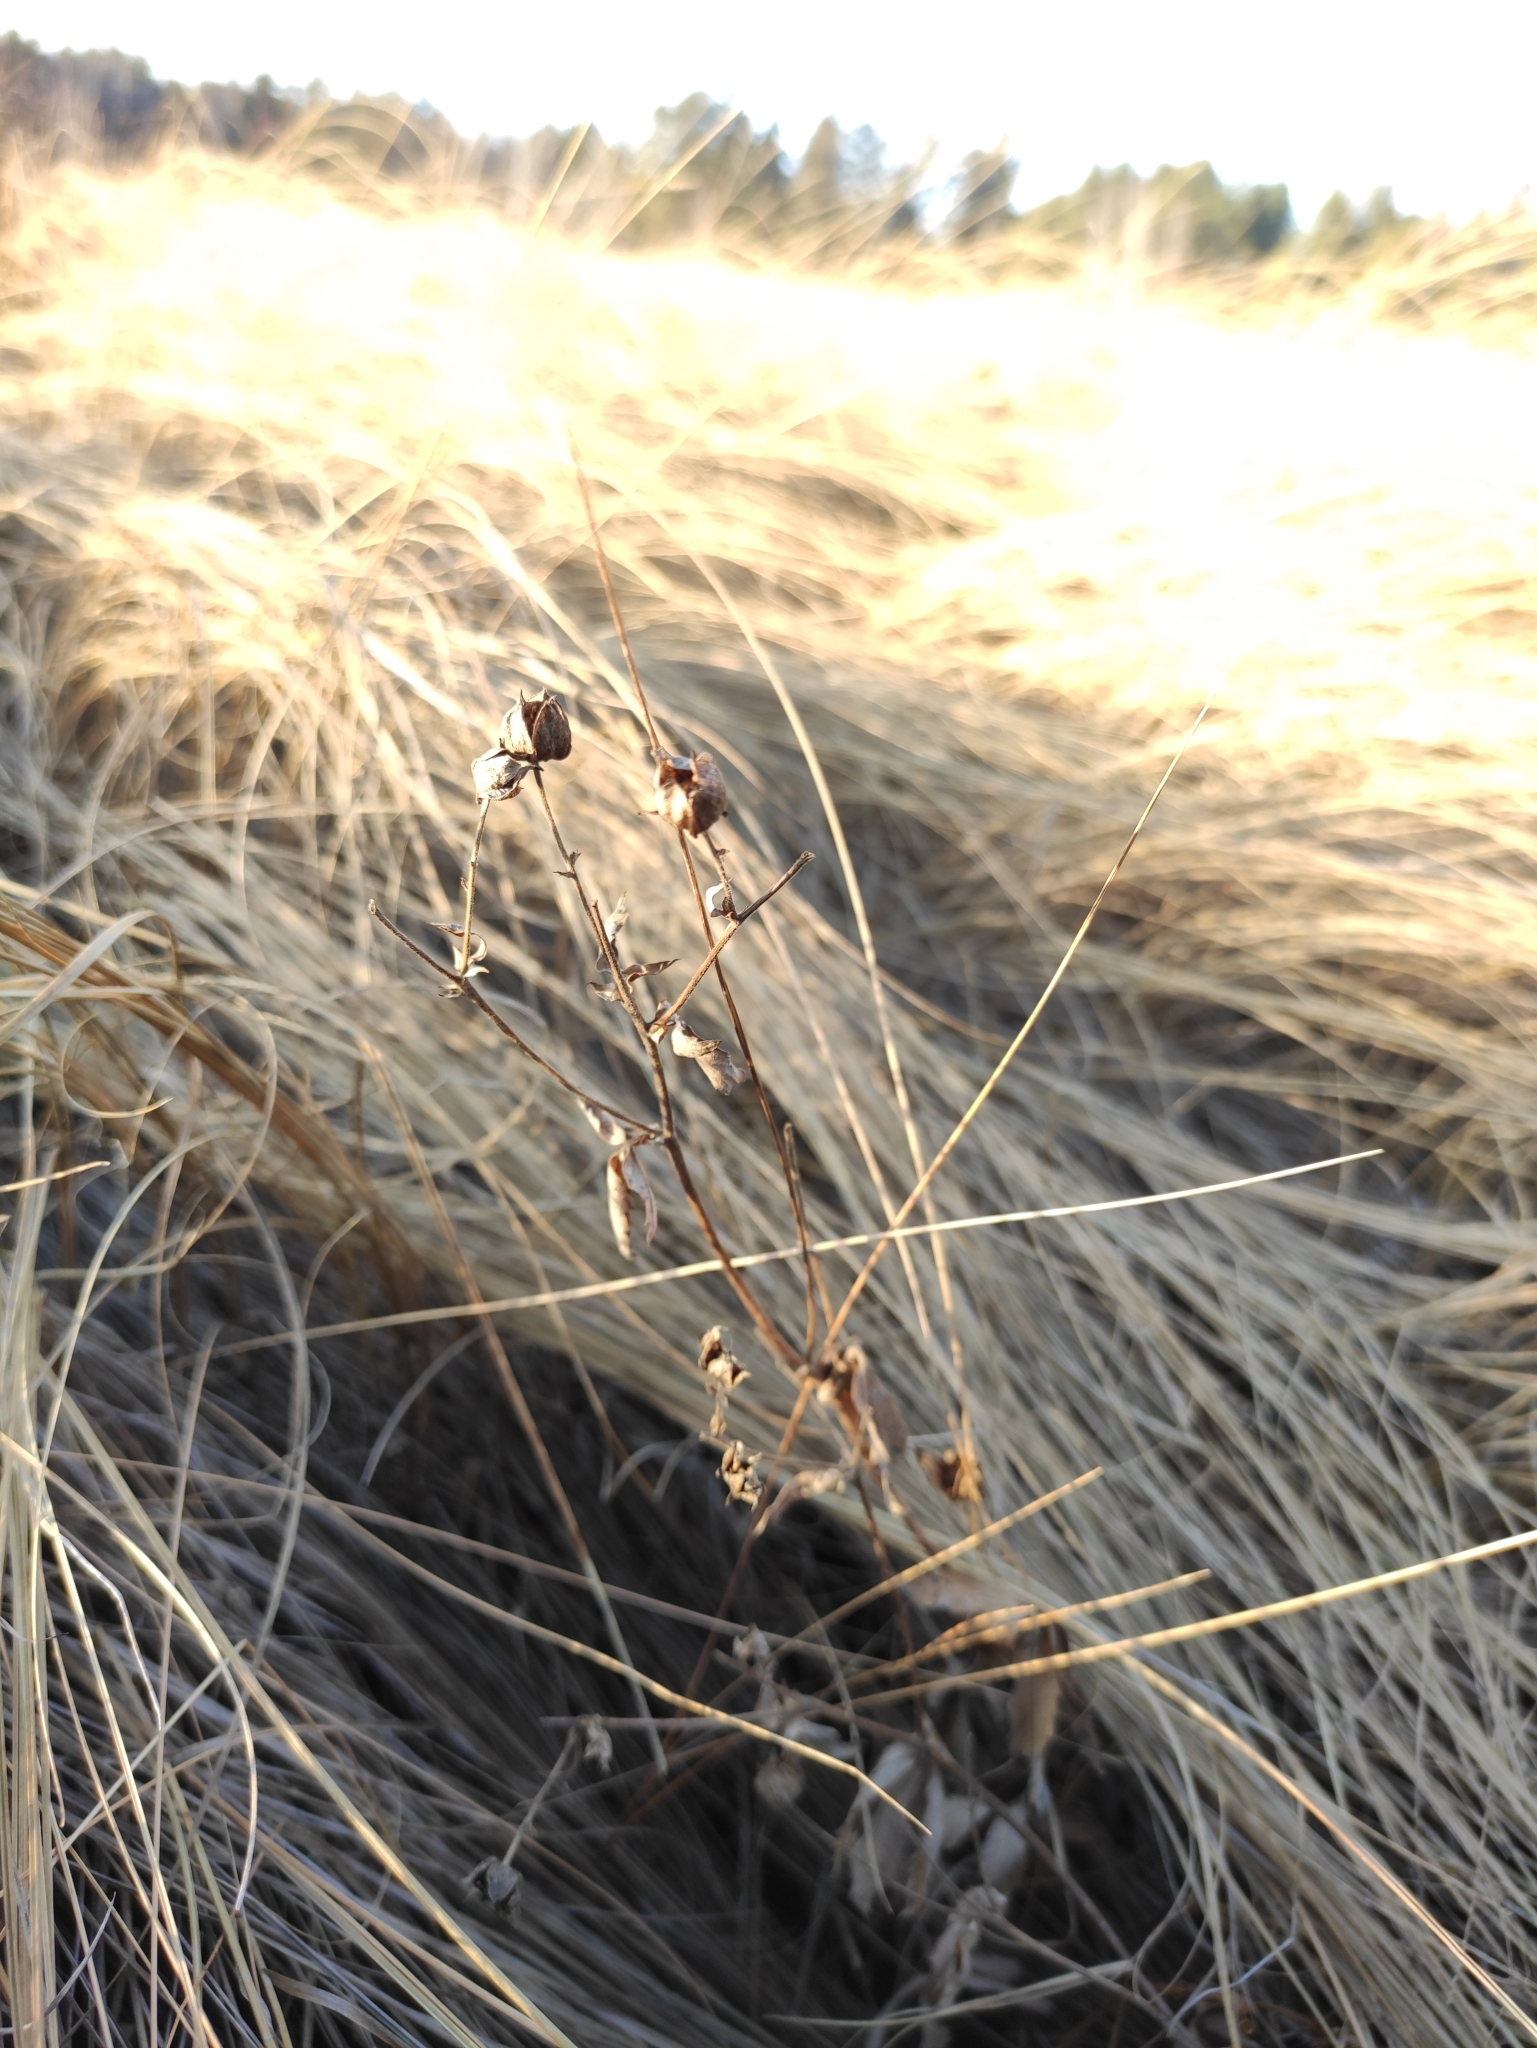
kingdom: Plantae
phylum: Tracheophyta
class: Magnoliopsida
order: Rosales
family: Rosaceae
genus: Comarum
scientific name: Comarum palustre
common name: Marsh cinquefoil
